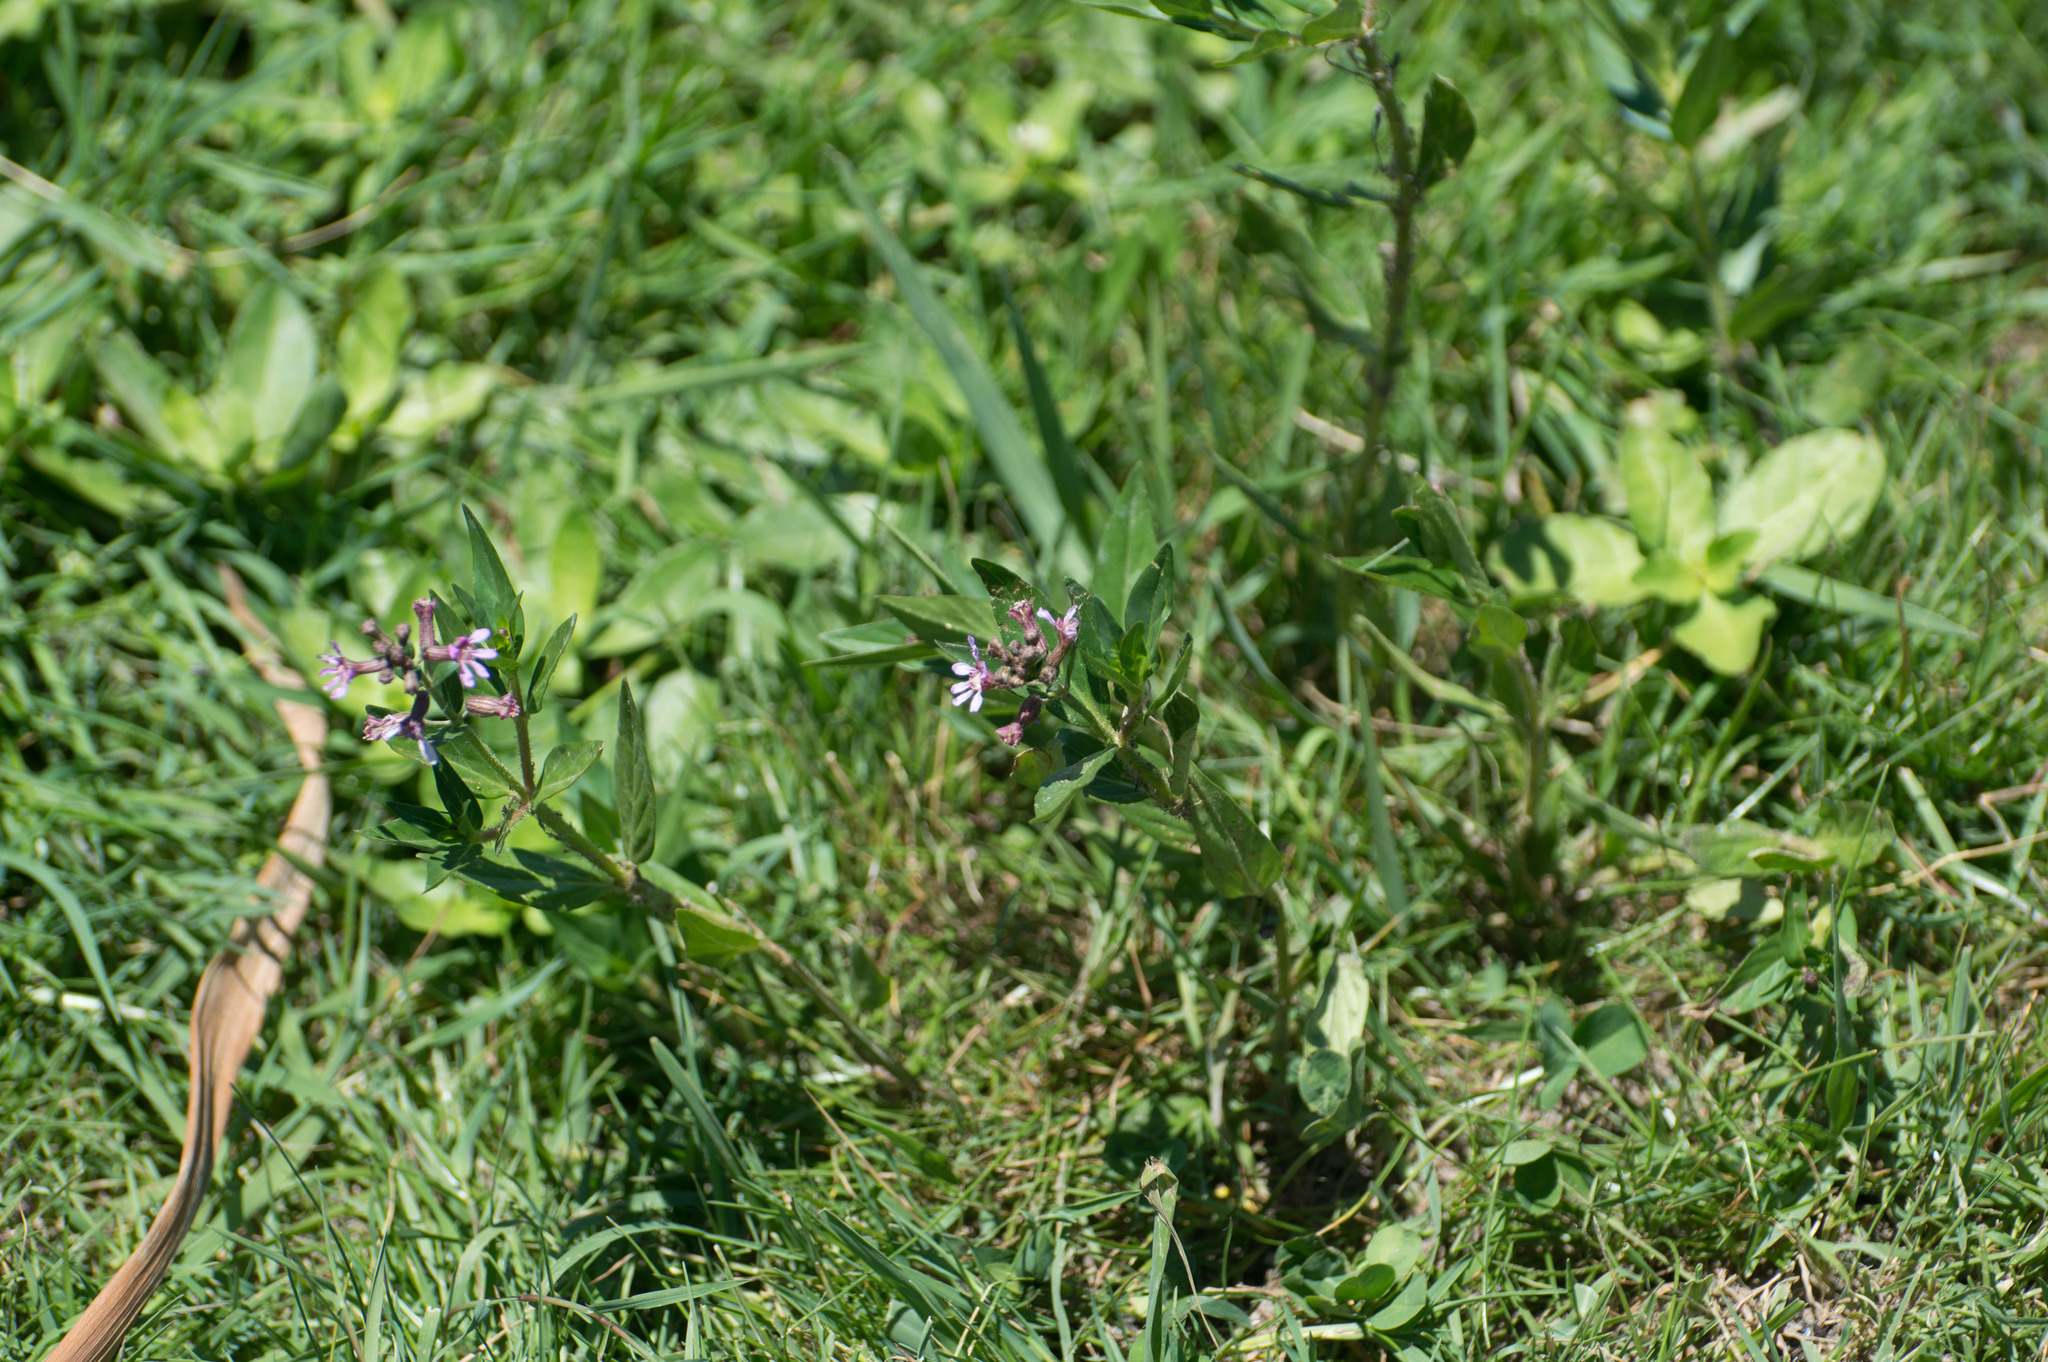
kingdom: Plantae
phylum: Tracheophyta
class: Magnoliopsida
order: Myrtales
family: Lythraceae
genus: Cuphea
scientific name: Cuphea fruticosa
